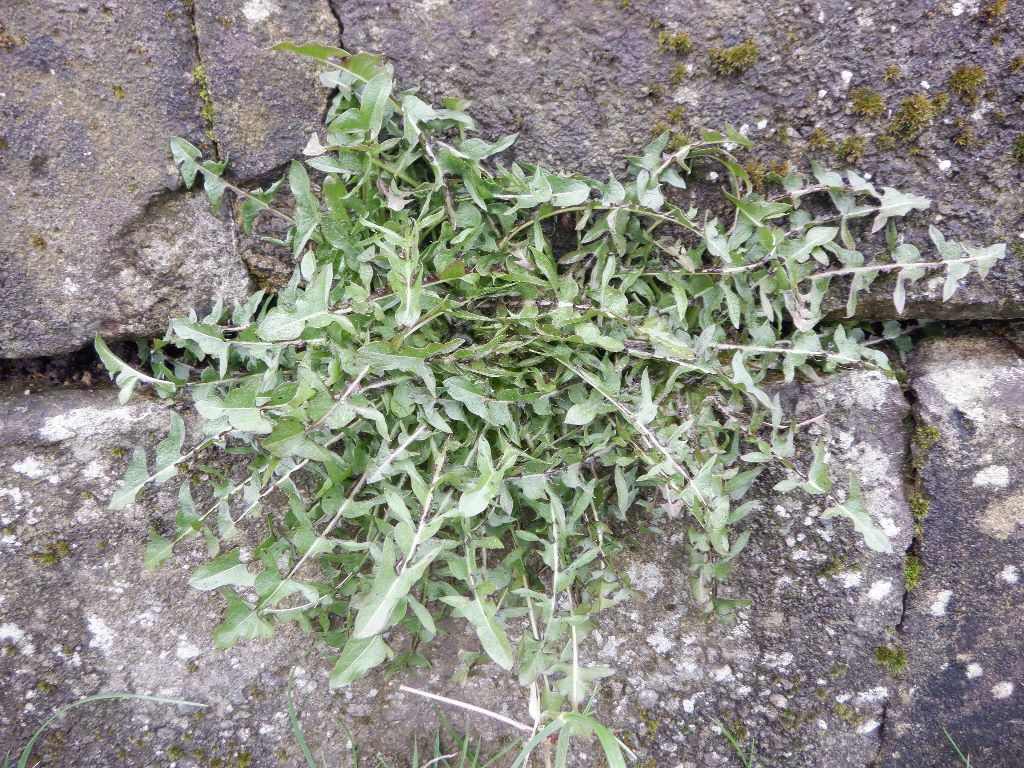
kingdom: Plantae
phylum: Tracheophyta
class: Magnoliopsida
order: Asterales
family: Asteraceae
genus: Taraxacum
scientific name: Taraxacum officinale
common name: Common dandelion
